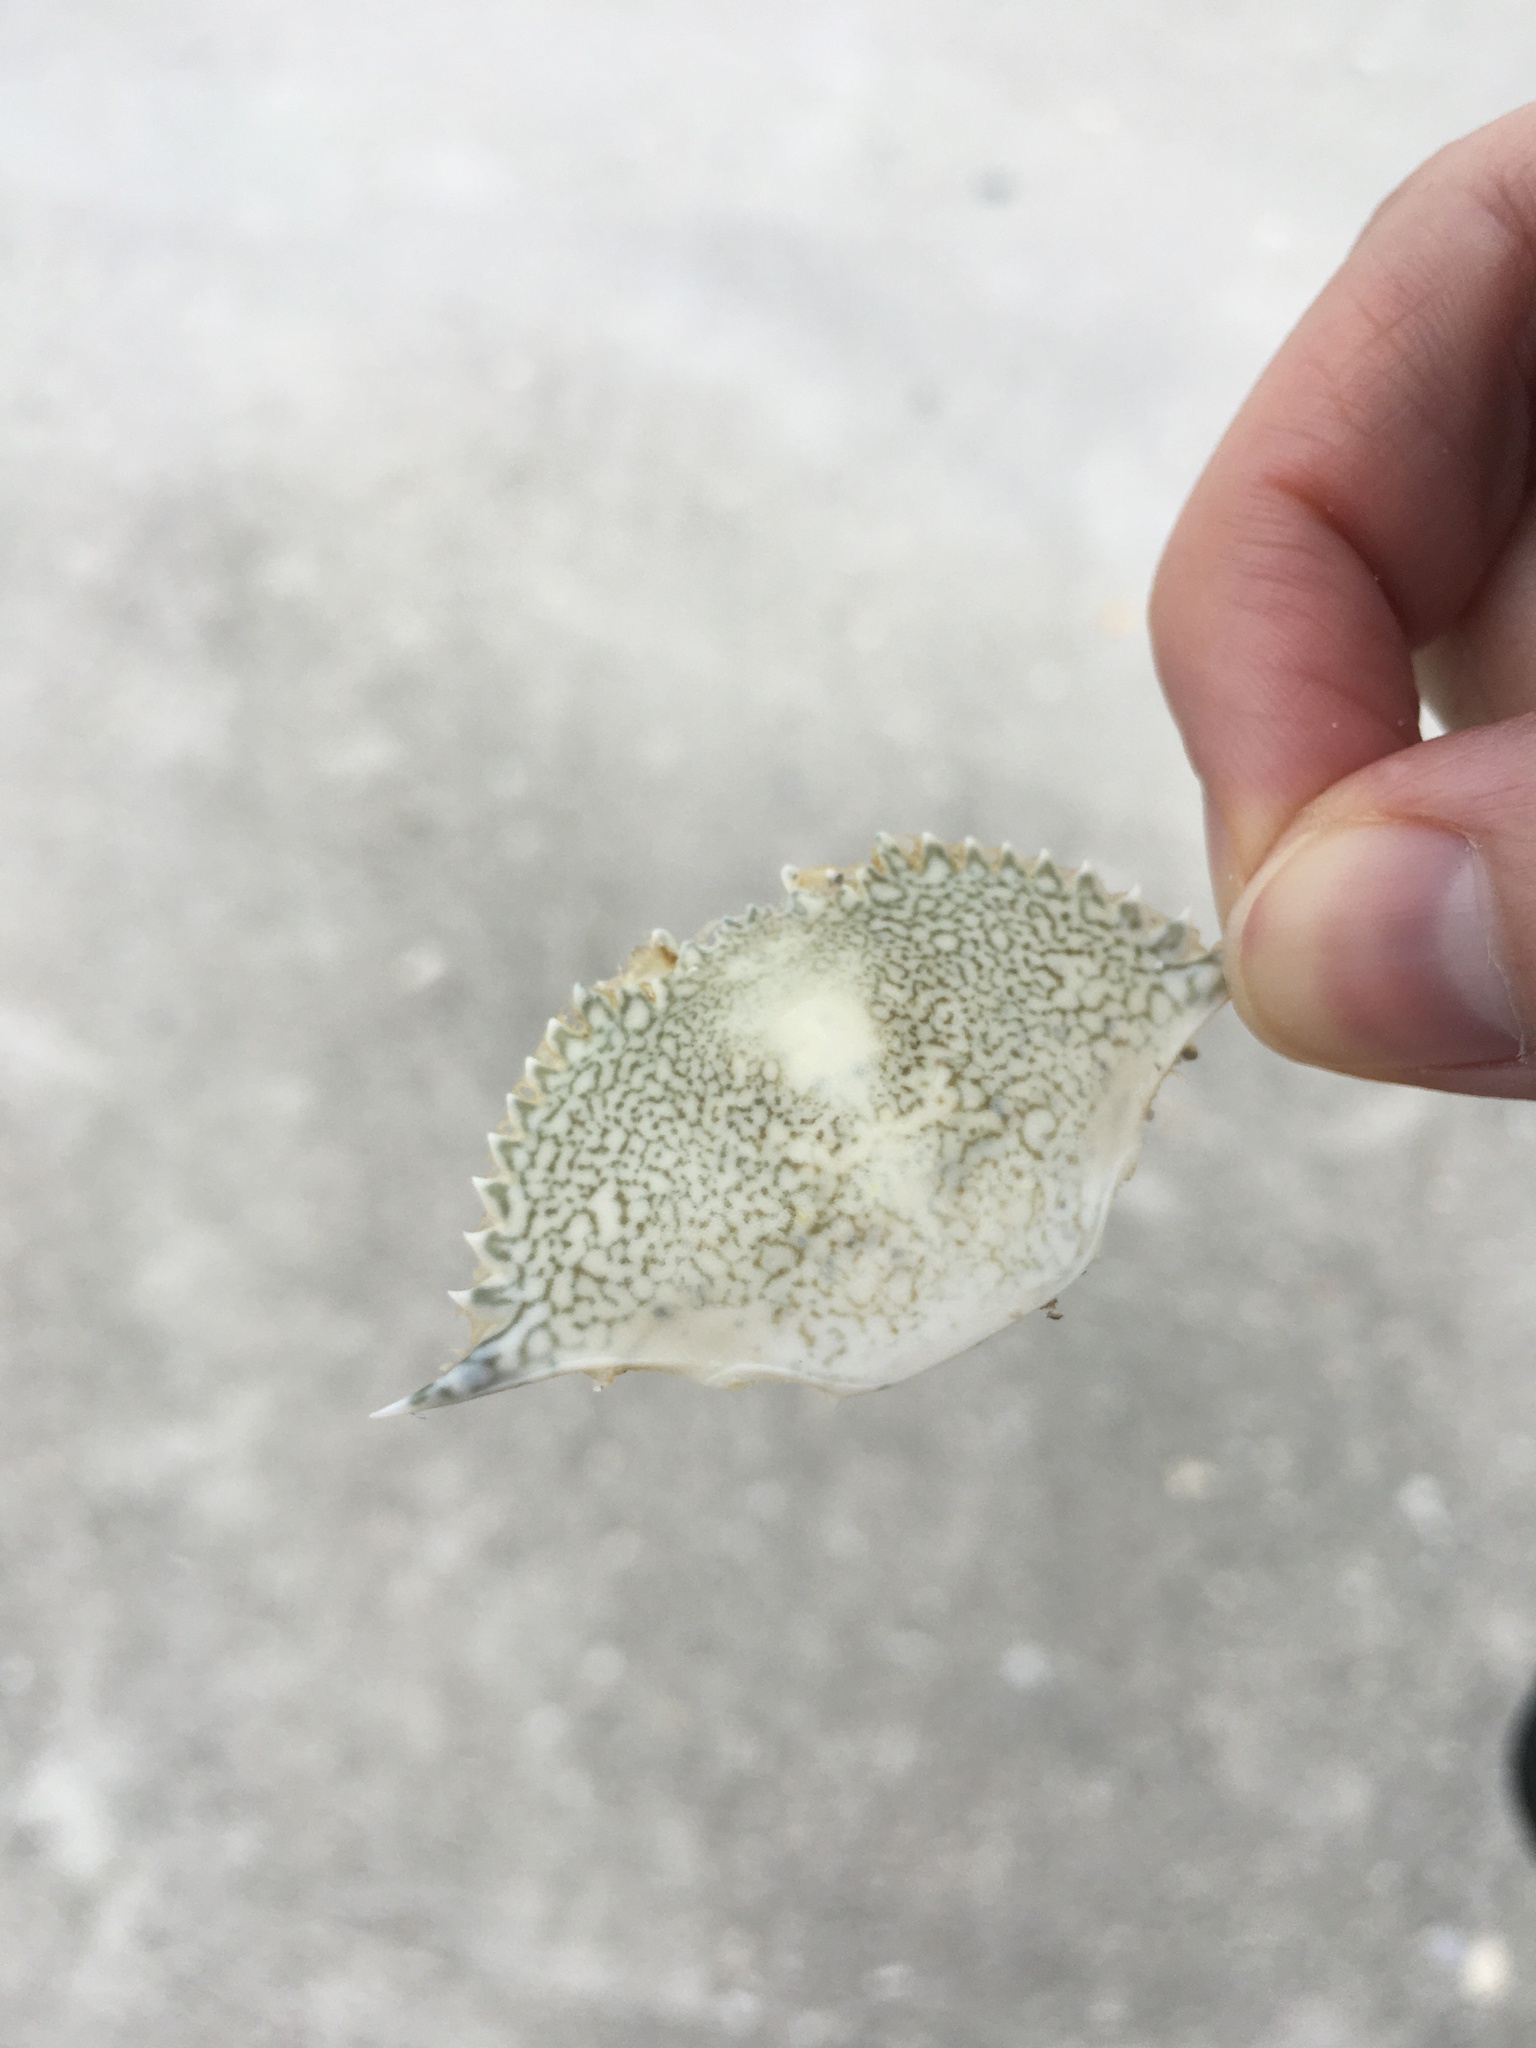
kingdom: Animalia
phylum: Arthropoda
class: Malacostraca
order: Decapoda
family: Portunidae
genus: Arenaeus
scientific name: Arenaeus cribrarius
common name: Speckled crab
